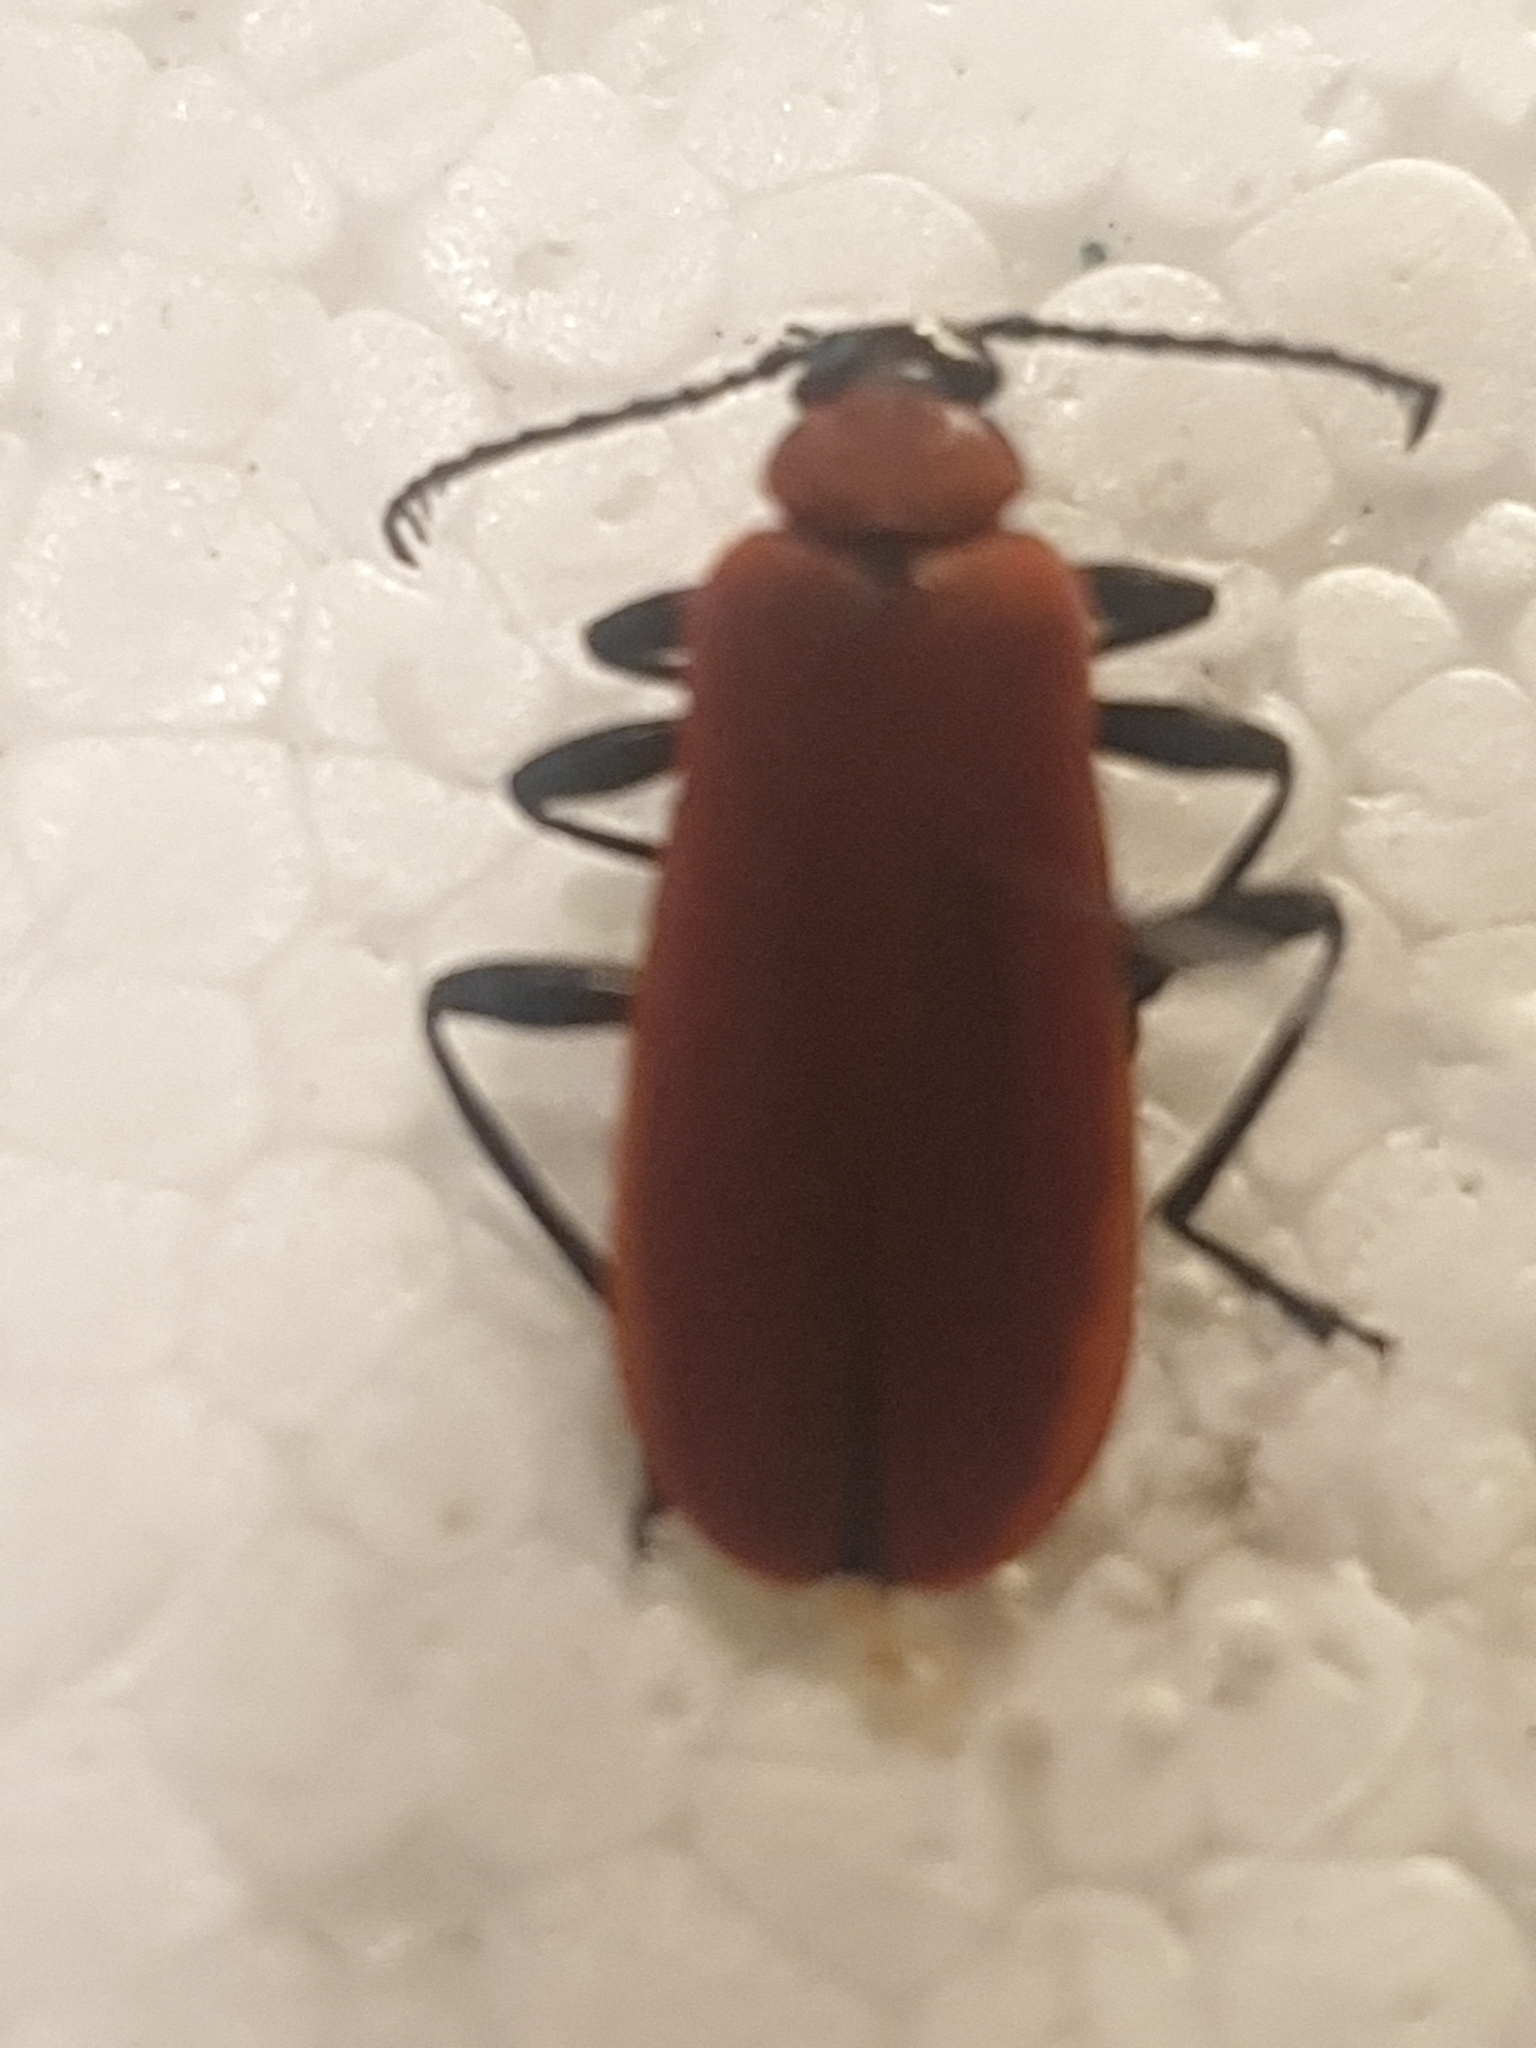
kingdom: Animalia
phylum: Arthropoda
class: Insecta
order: Coleoptera
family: Pyrochroidae
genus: Pyrochroa
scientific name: Pyrochroa coccinea
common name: Black-headed cardinal beetle
